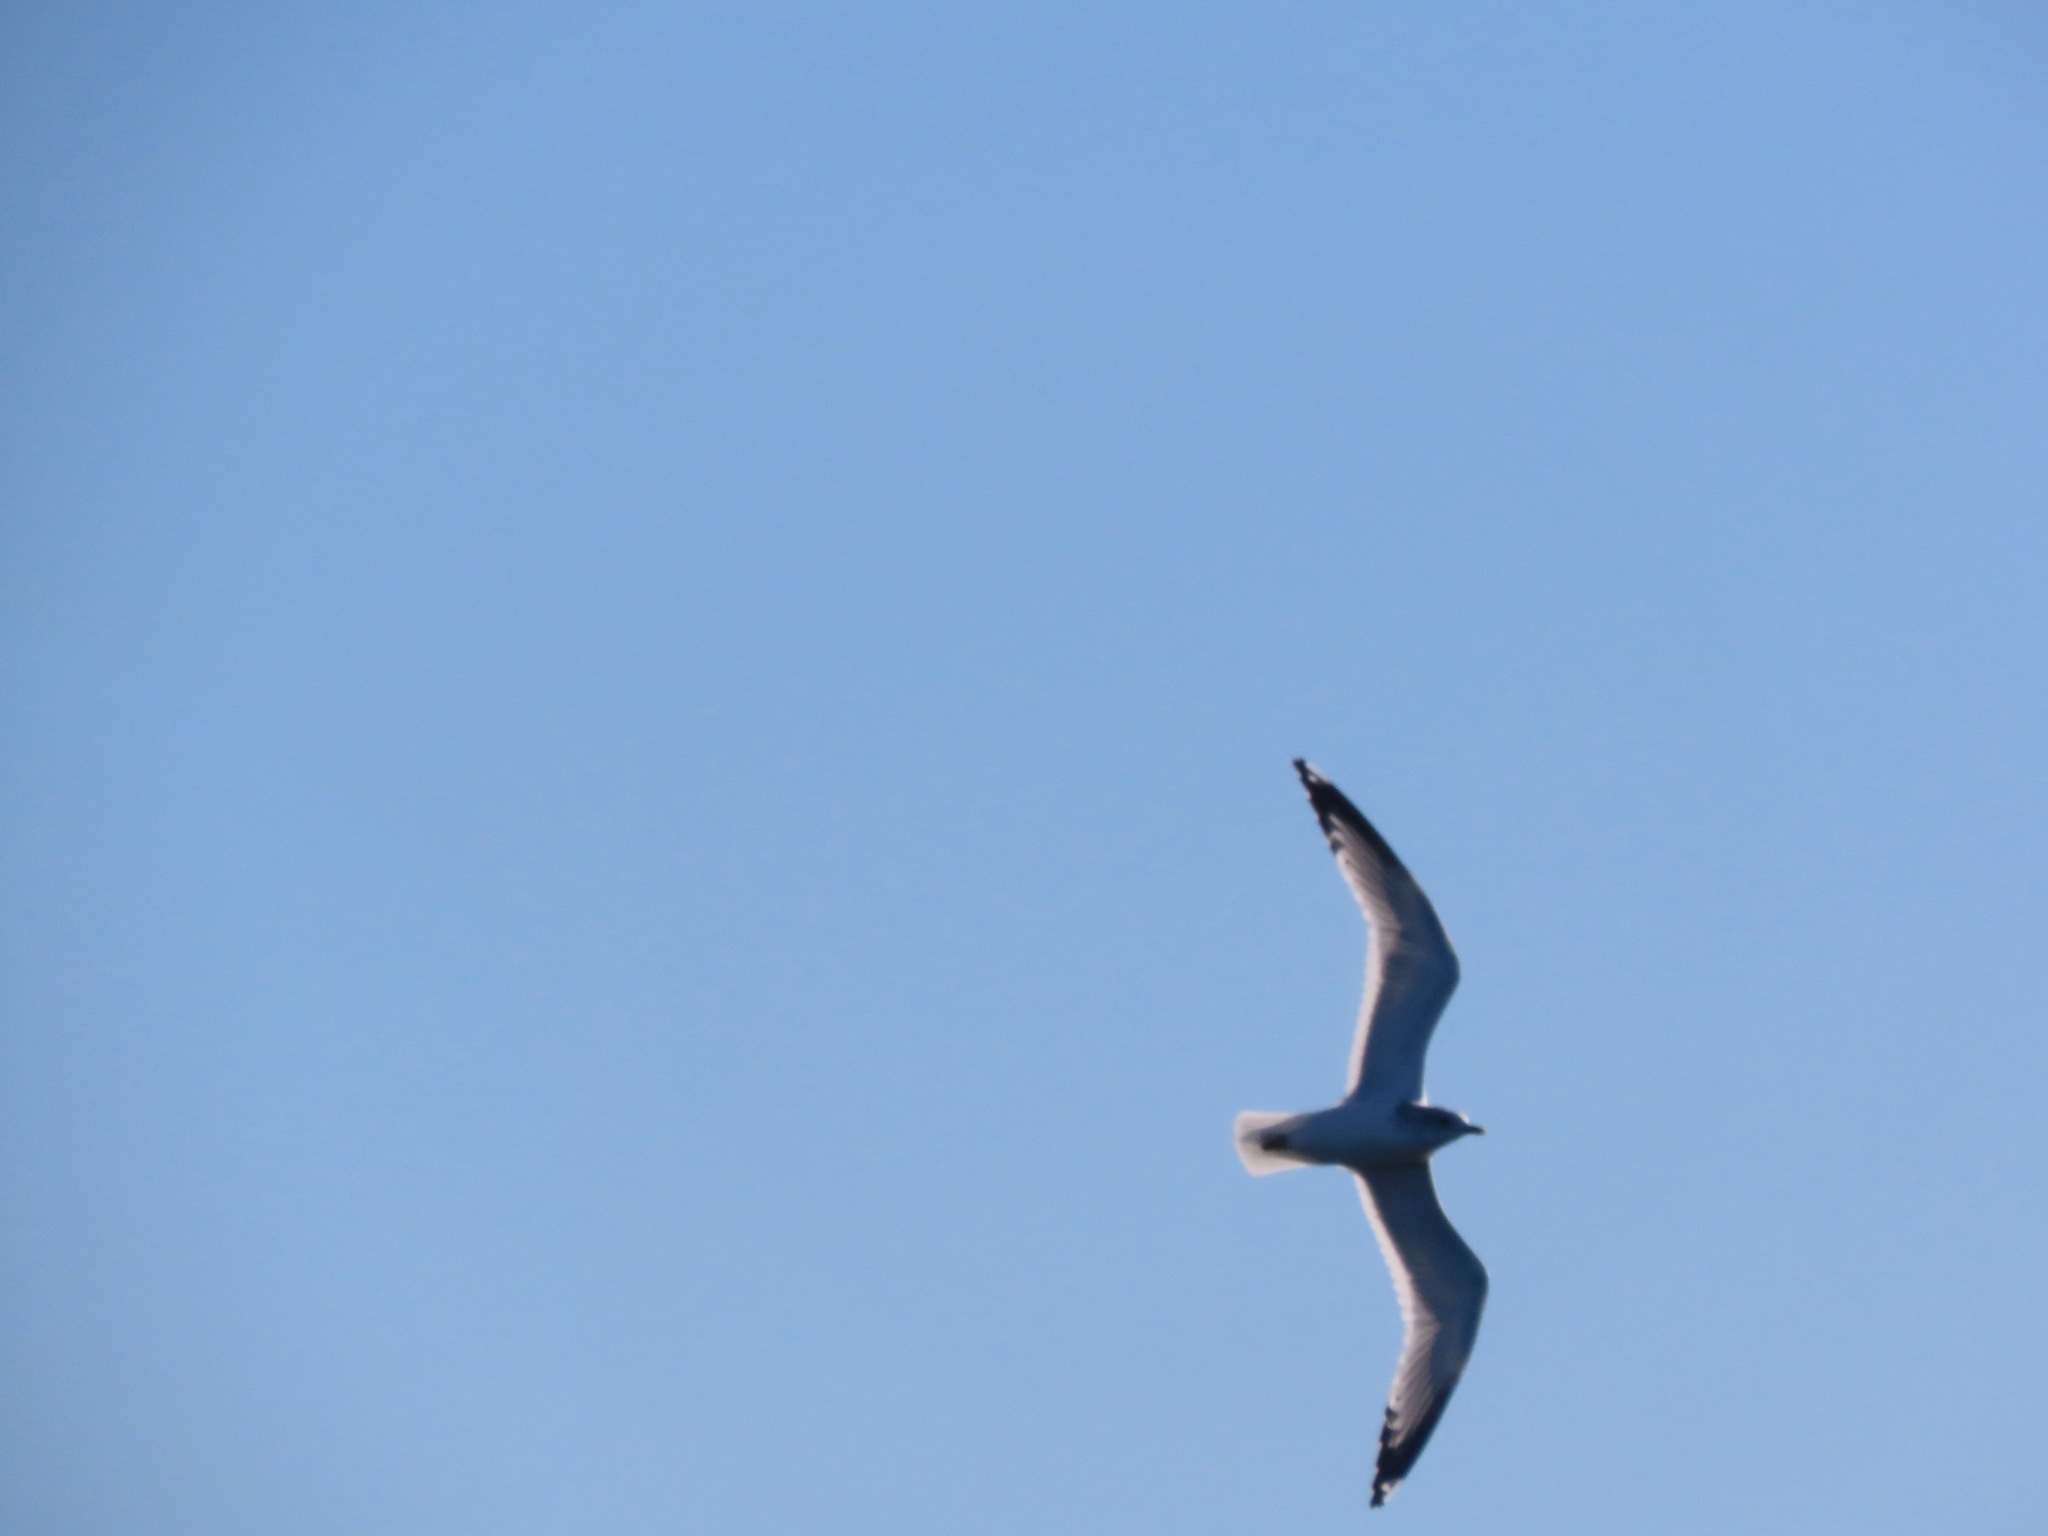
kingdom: Animalia
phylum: Chordata
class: Aves
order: Charadriiformes
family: Laridae
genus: Larus
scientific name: Larus brachyrhynchus
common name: Short-billed gull
